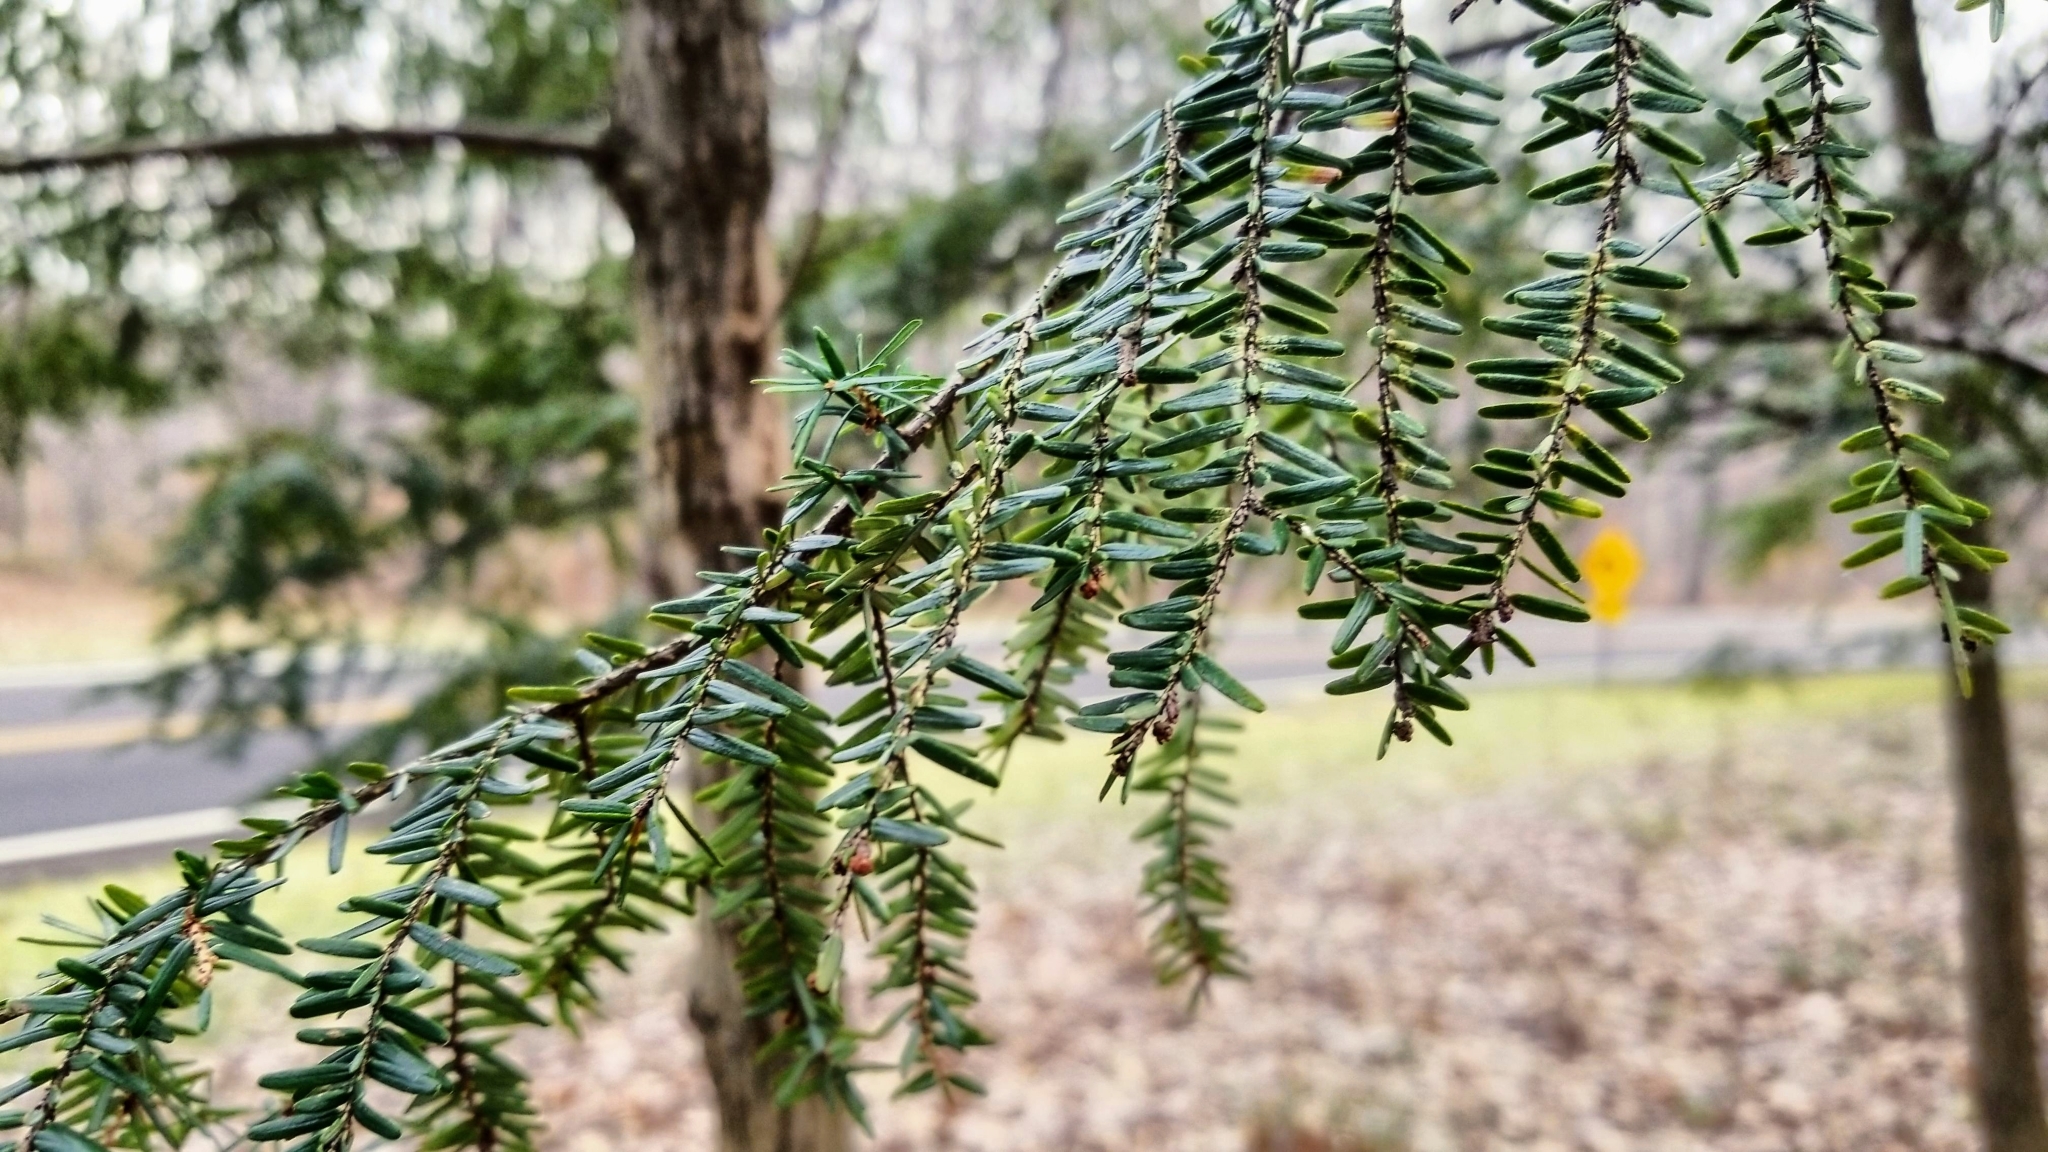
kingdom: Plantae
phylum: Tracheophyta
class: Pinopsida
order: Pinales
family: Pinaceae
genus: Tsuga
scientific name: Tsuga canadensis
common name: Eastern hemlock
